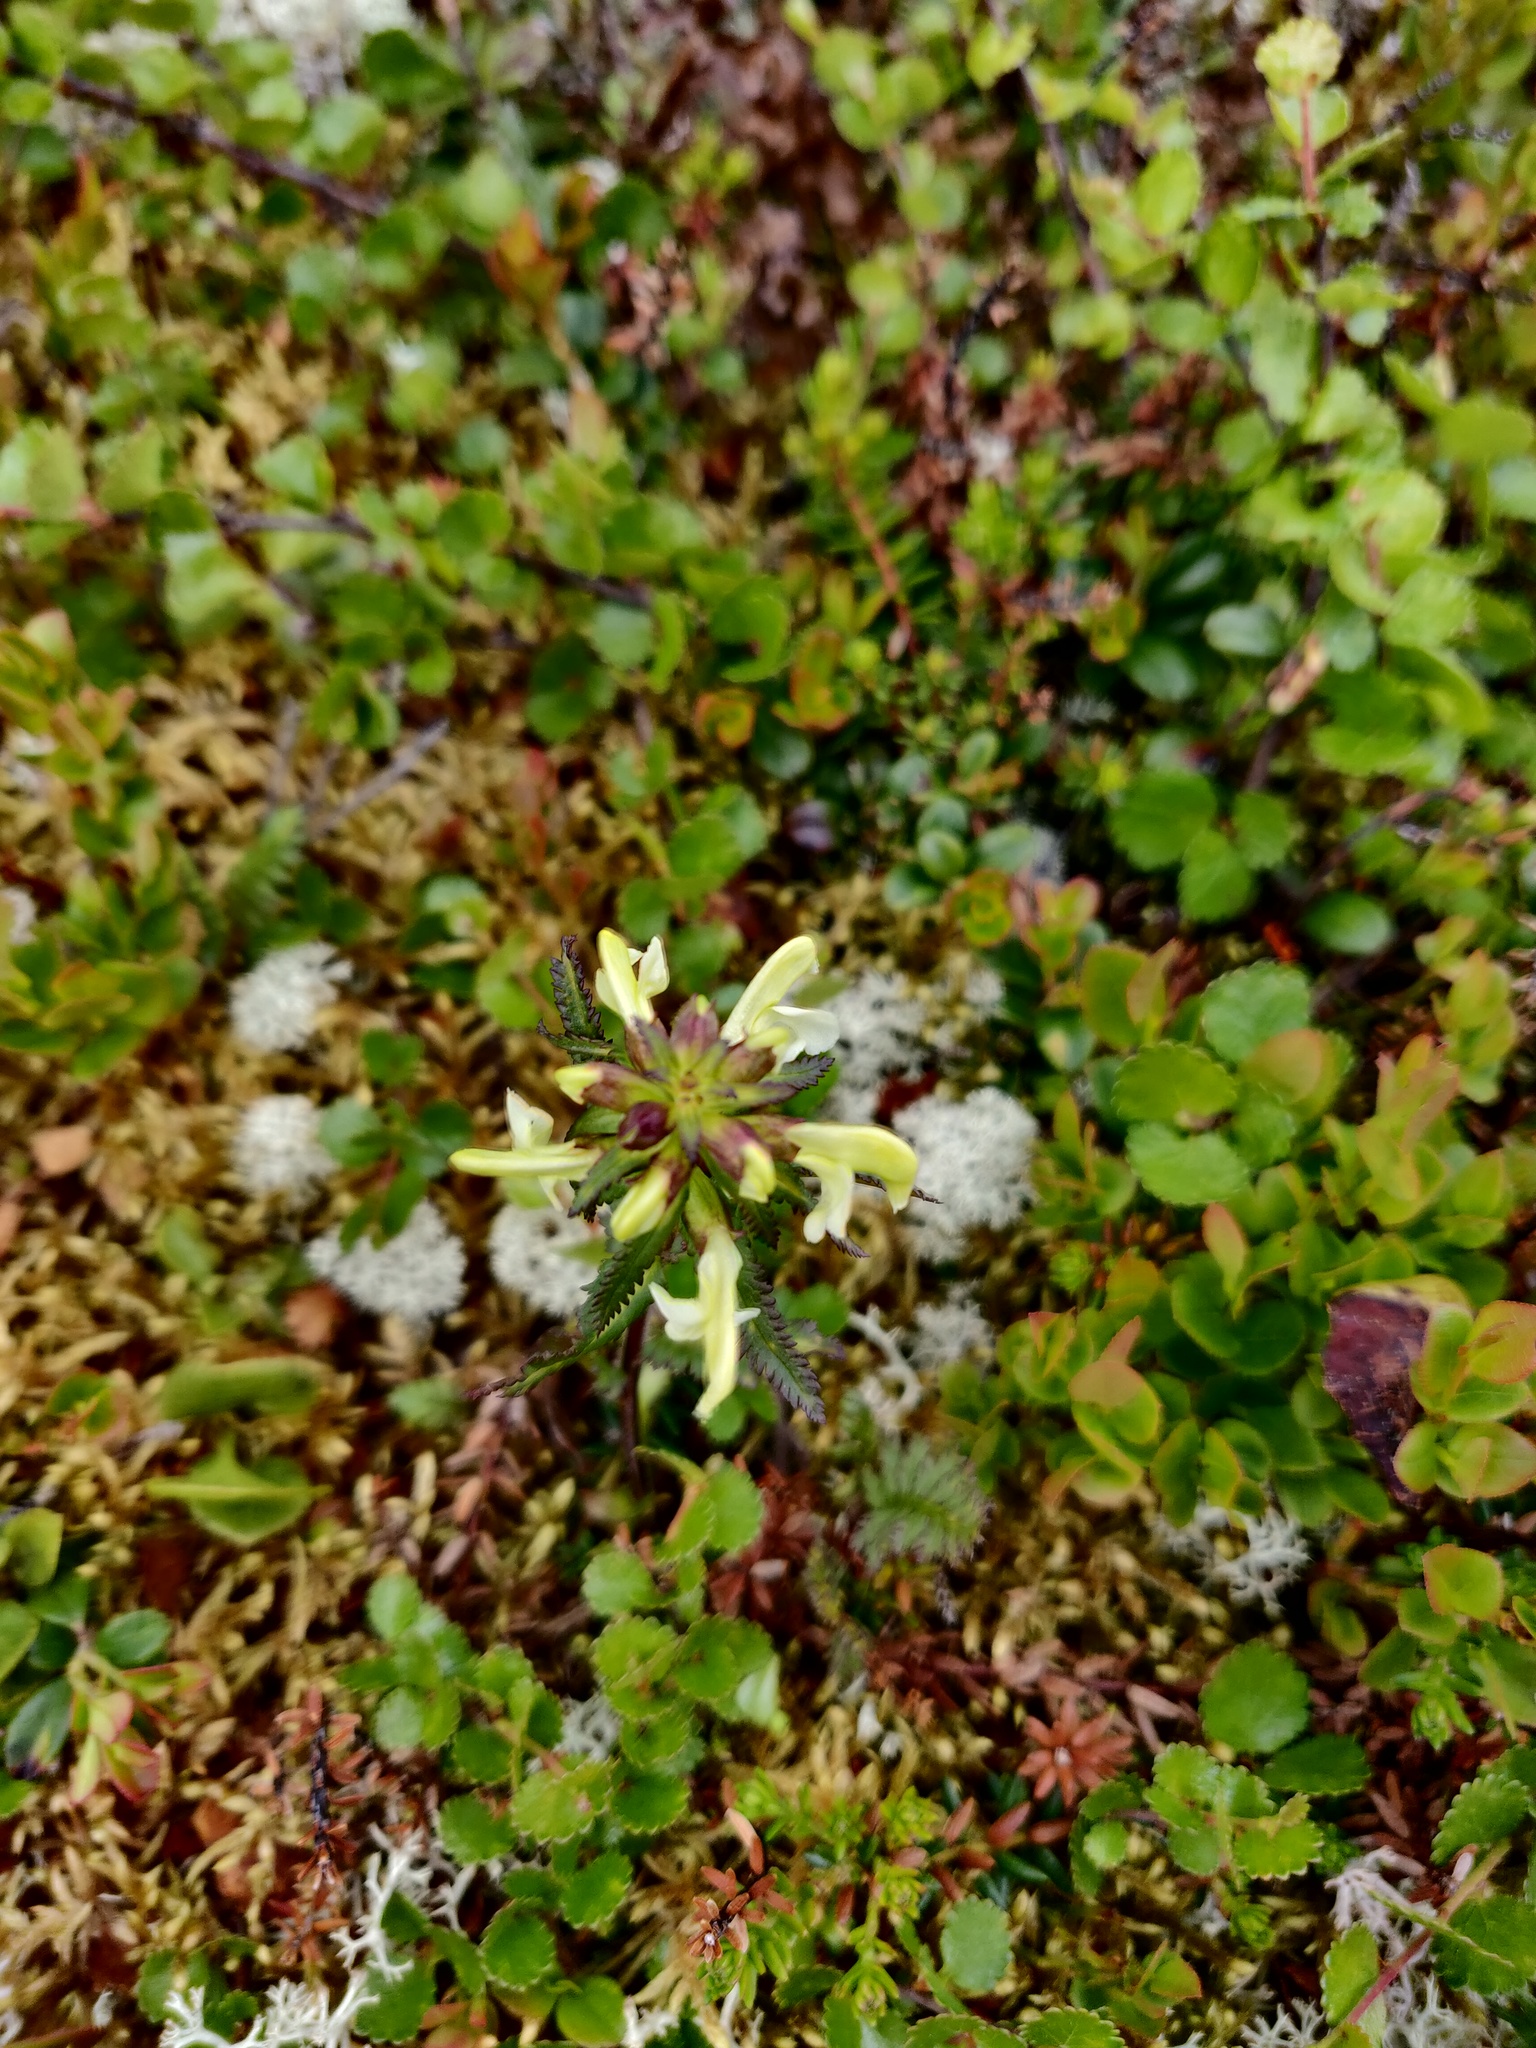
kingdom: Plantae
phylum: Tracheophyta
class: Magnoliopsida
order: Lamiales
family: Orobanchaceae
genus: Pedicularis
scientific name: Pedicularis lapponica
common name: Lapland lousewort
